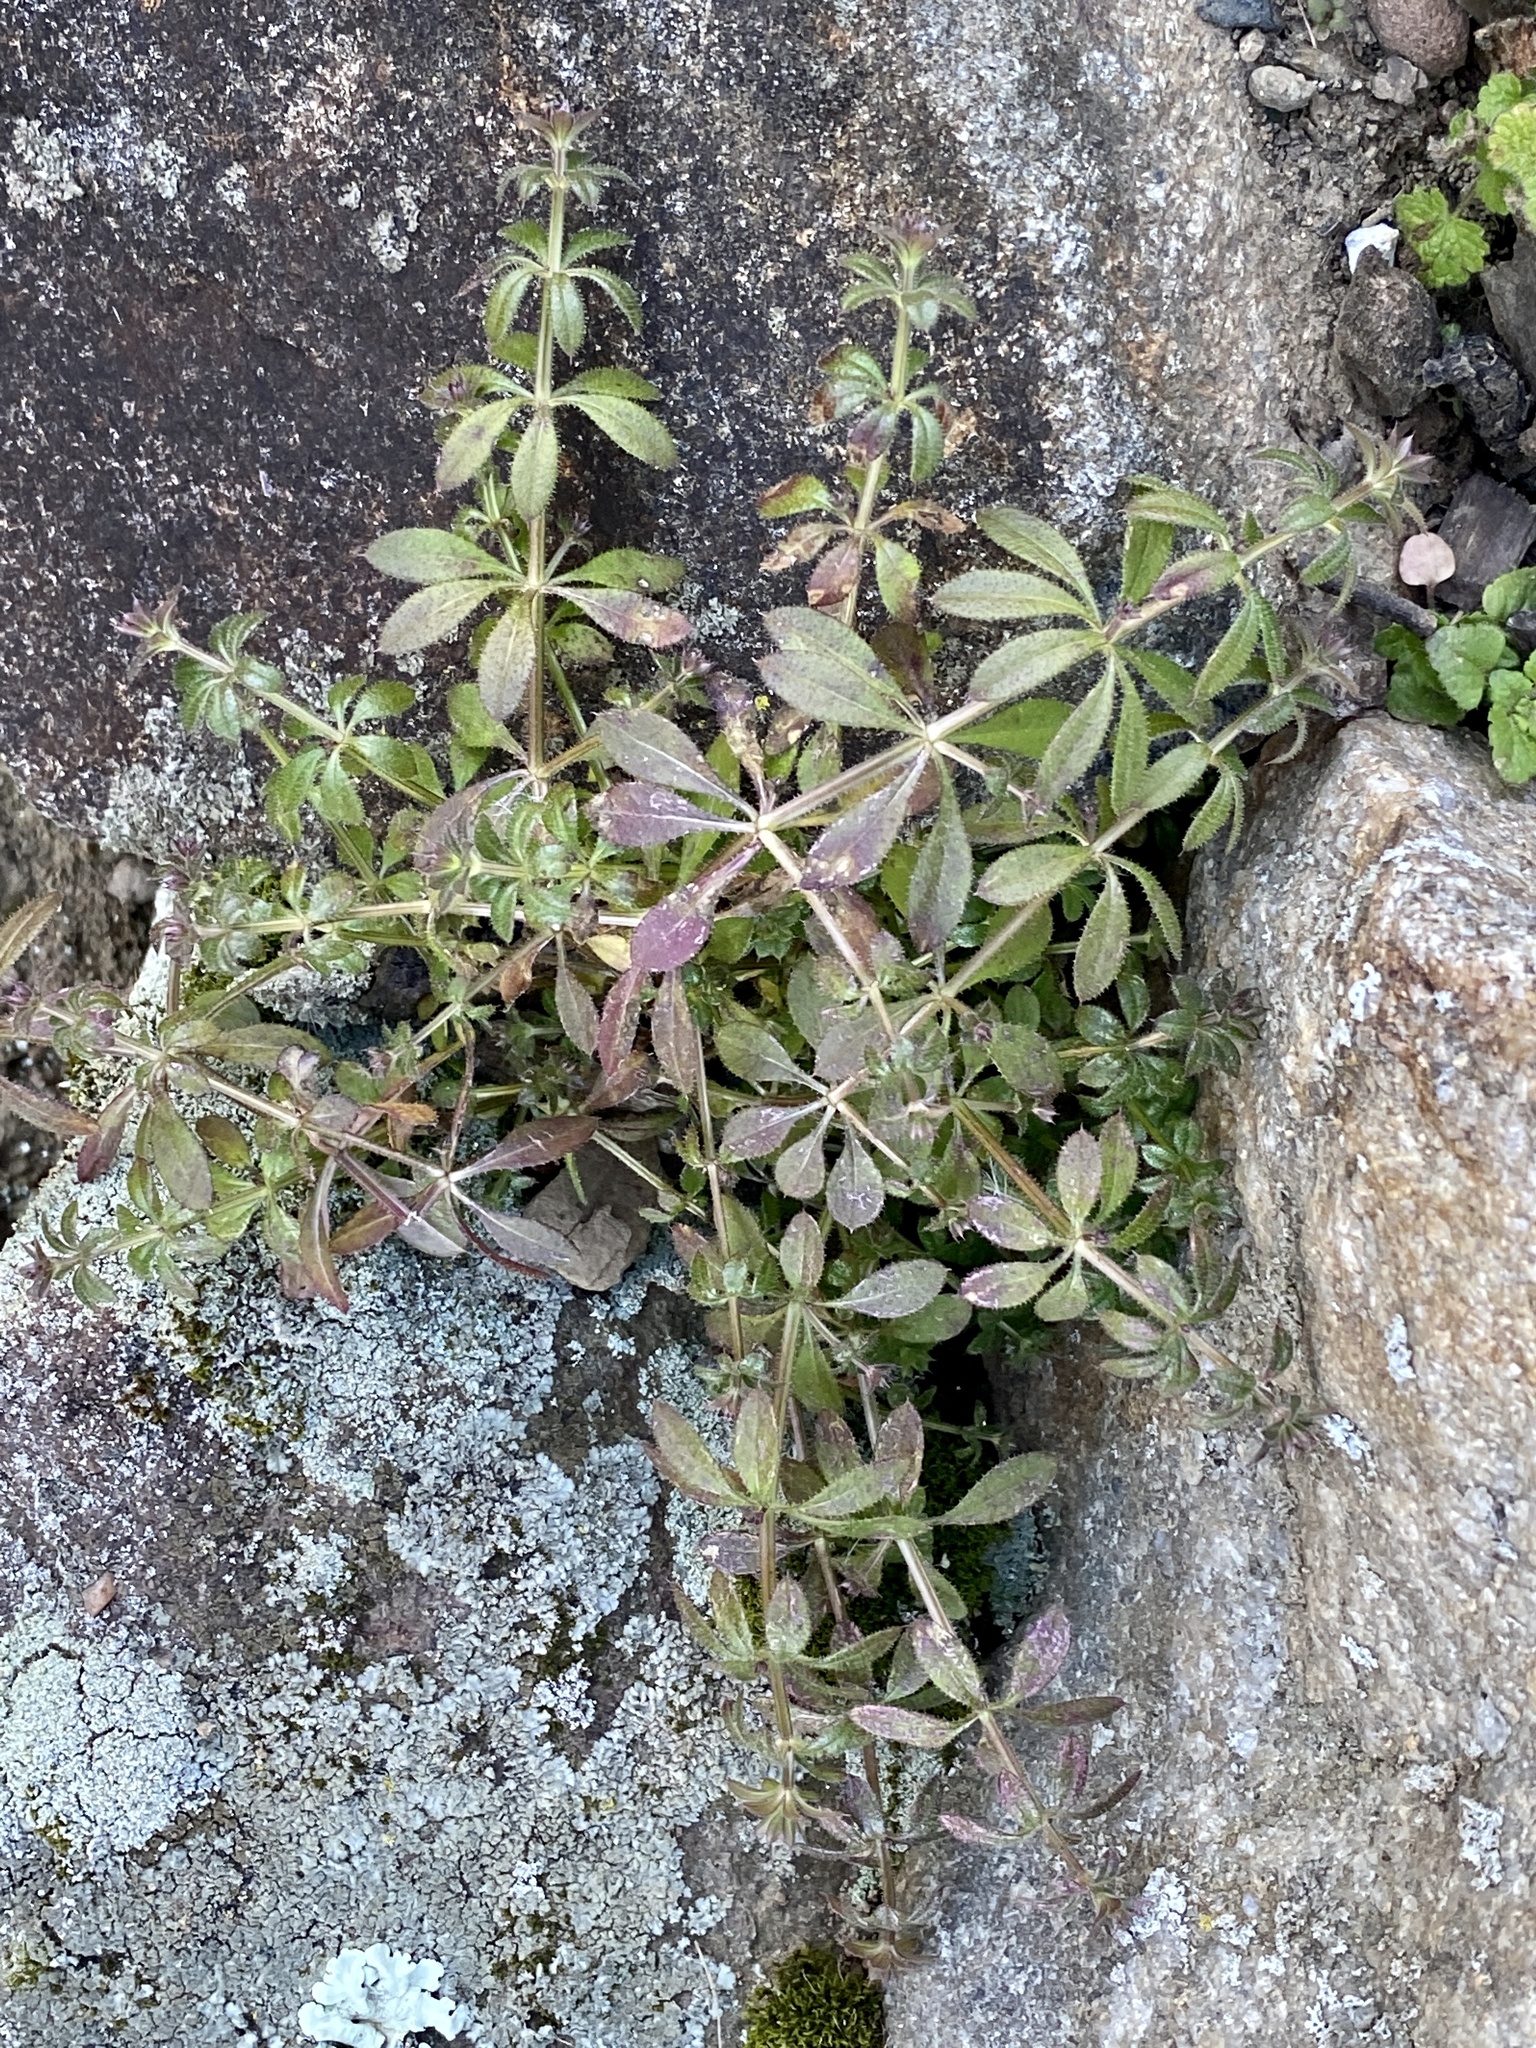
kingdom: Plantae
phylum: Tracheophyta
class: Magnoliopsida
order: Gentianales
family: Rubiaceae
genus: Galium
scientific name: Galium aparine
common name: Cleavers
